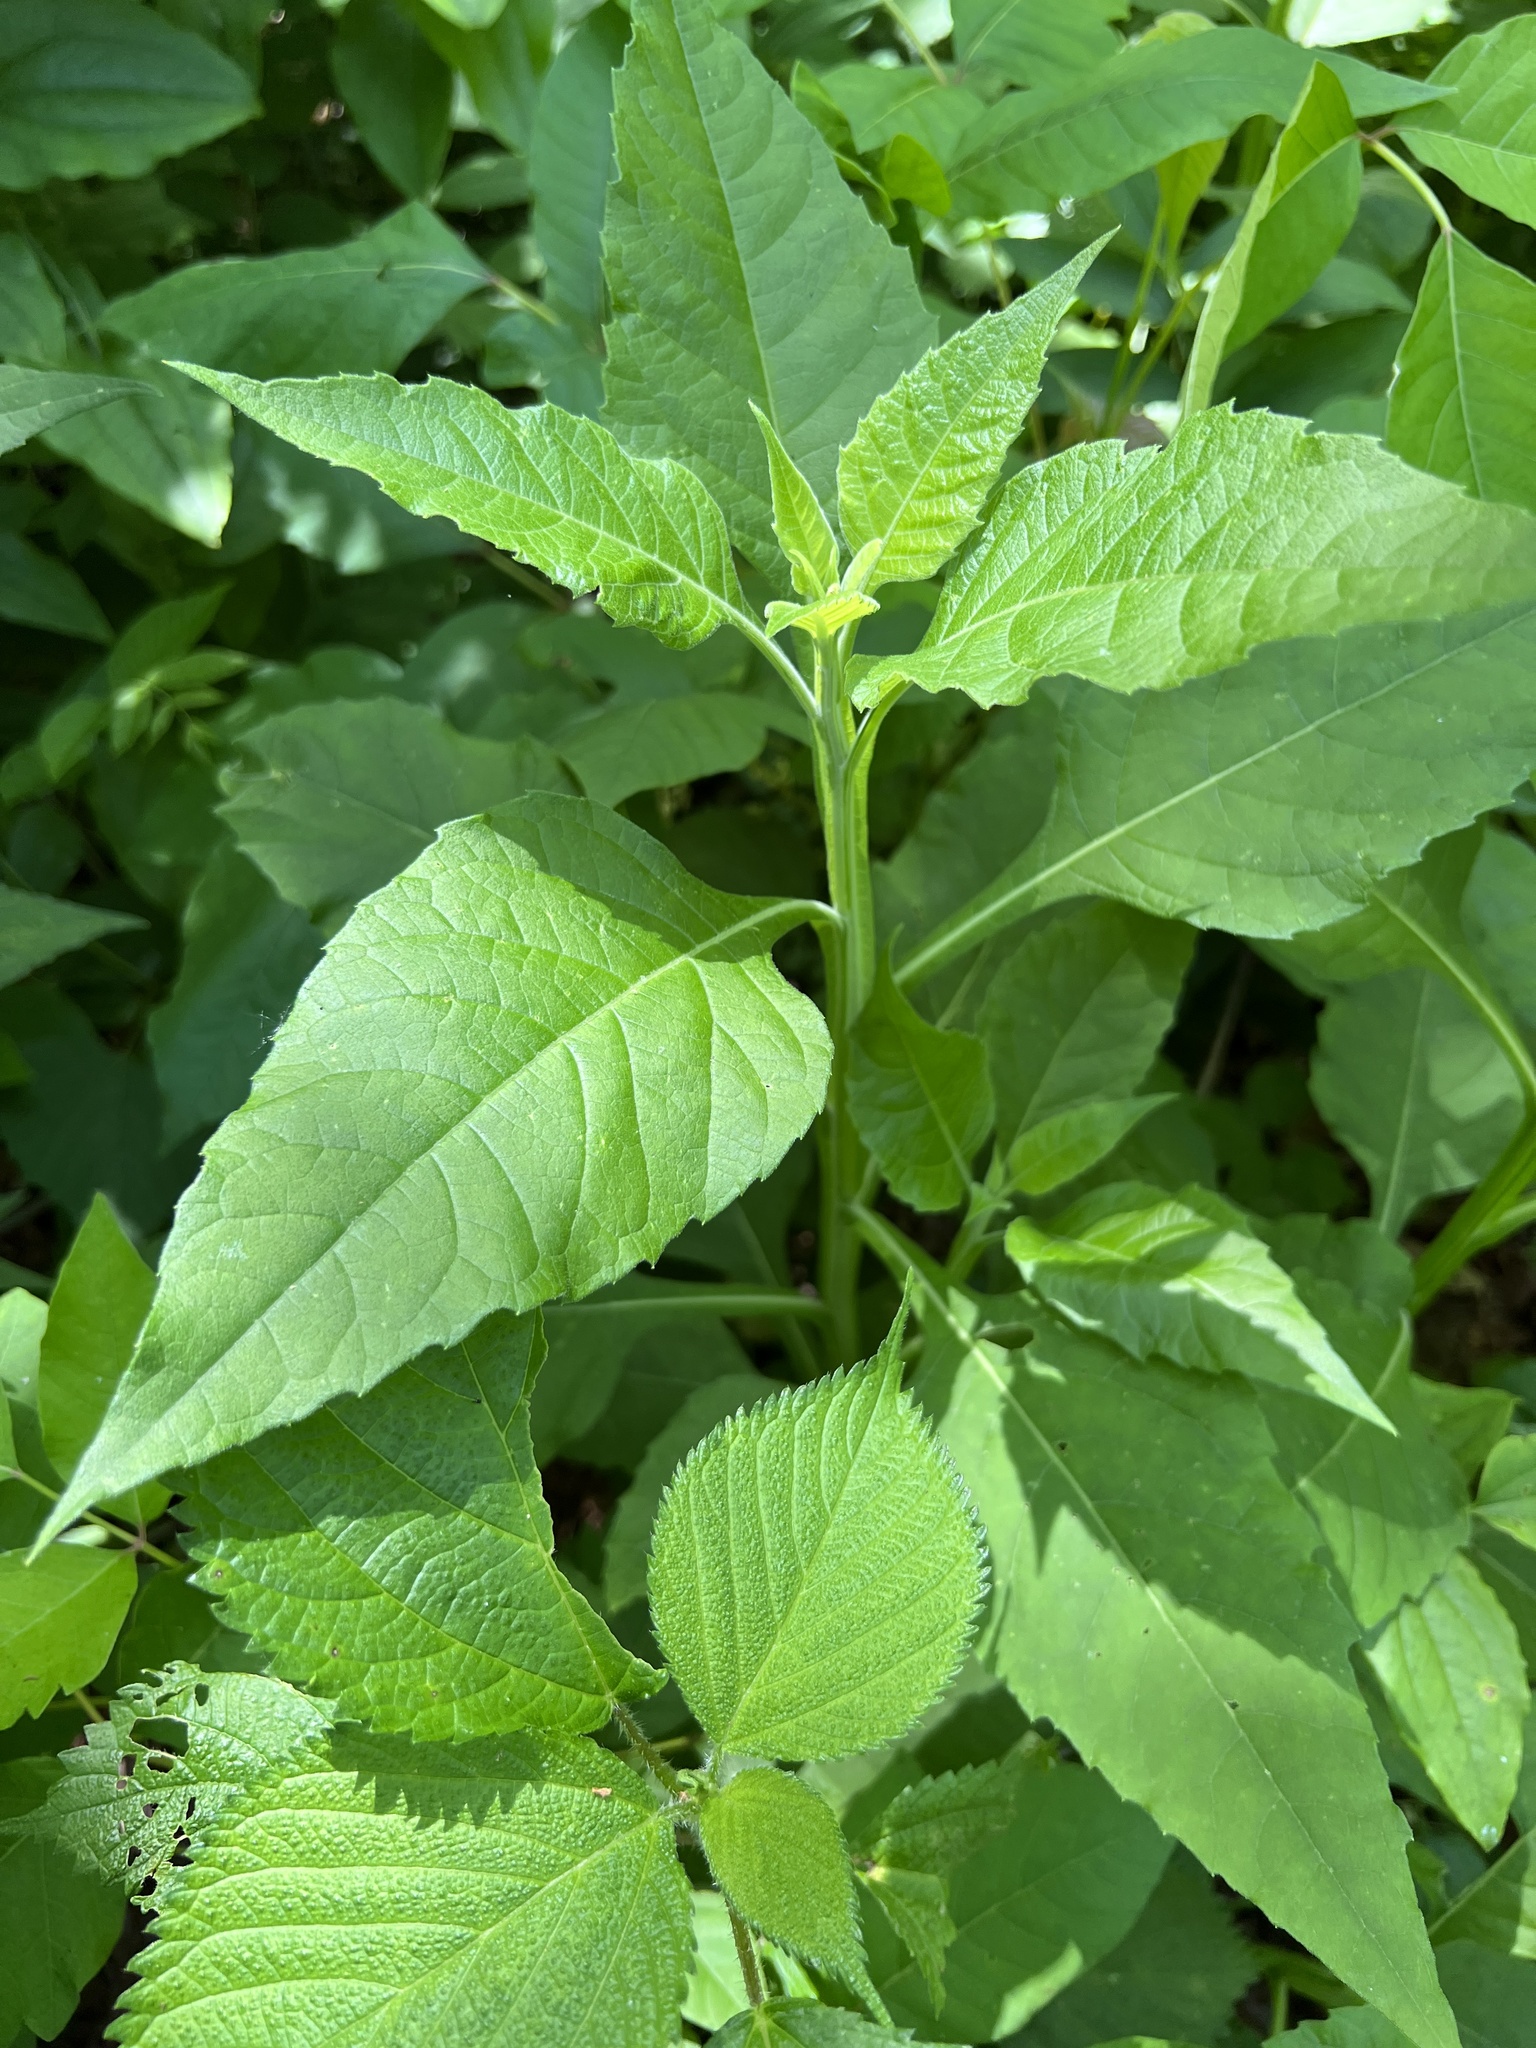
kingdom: Plantae
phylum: Tracheophyta
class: Magnoliopsida
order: Asterales
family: Asteraceae
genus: Verbesina
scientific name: Verbesina virginica
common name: Frostweed
